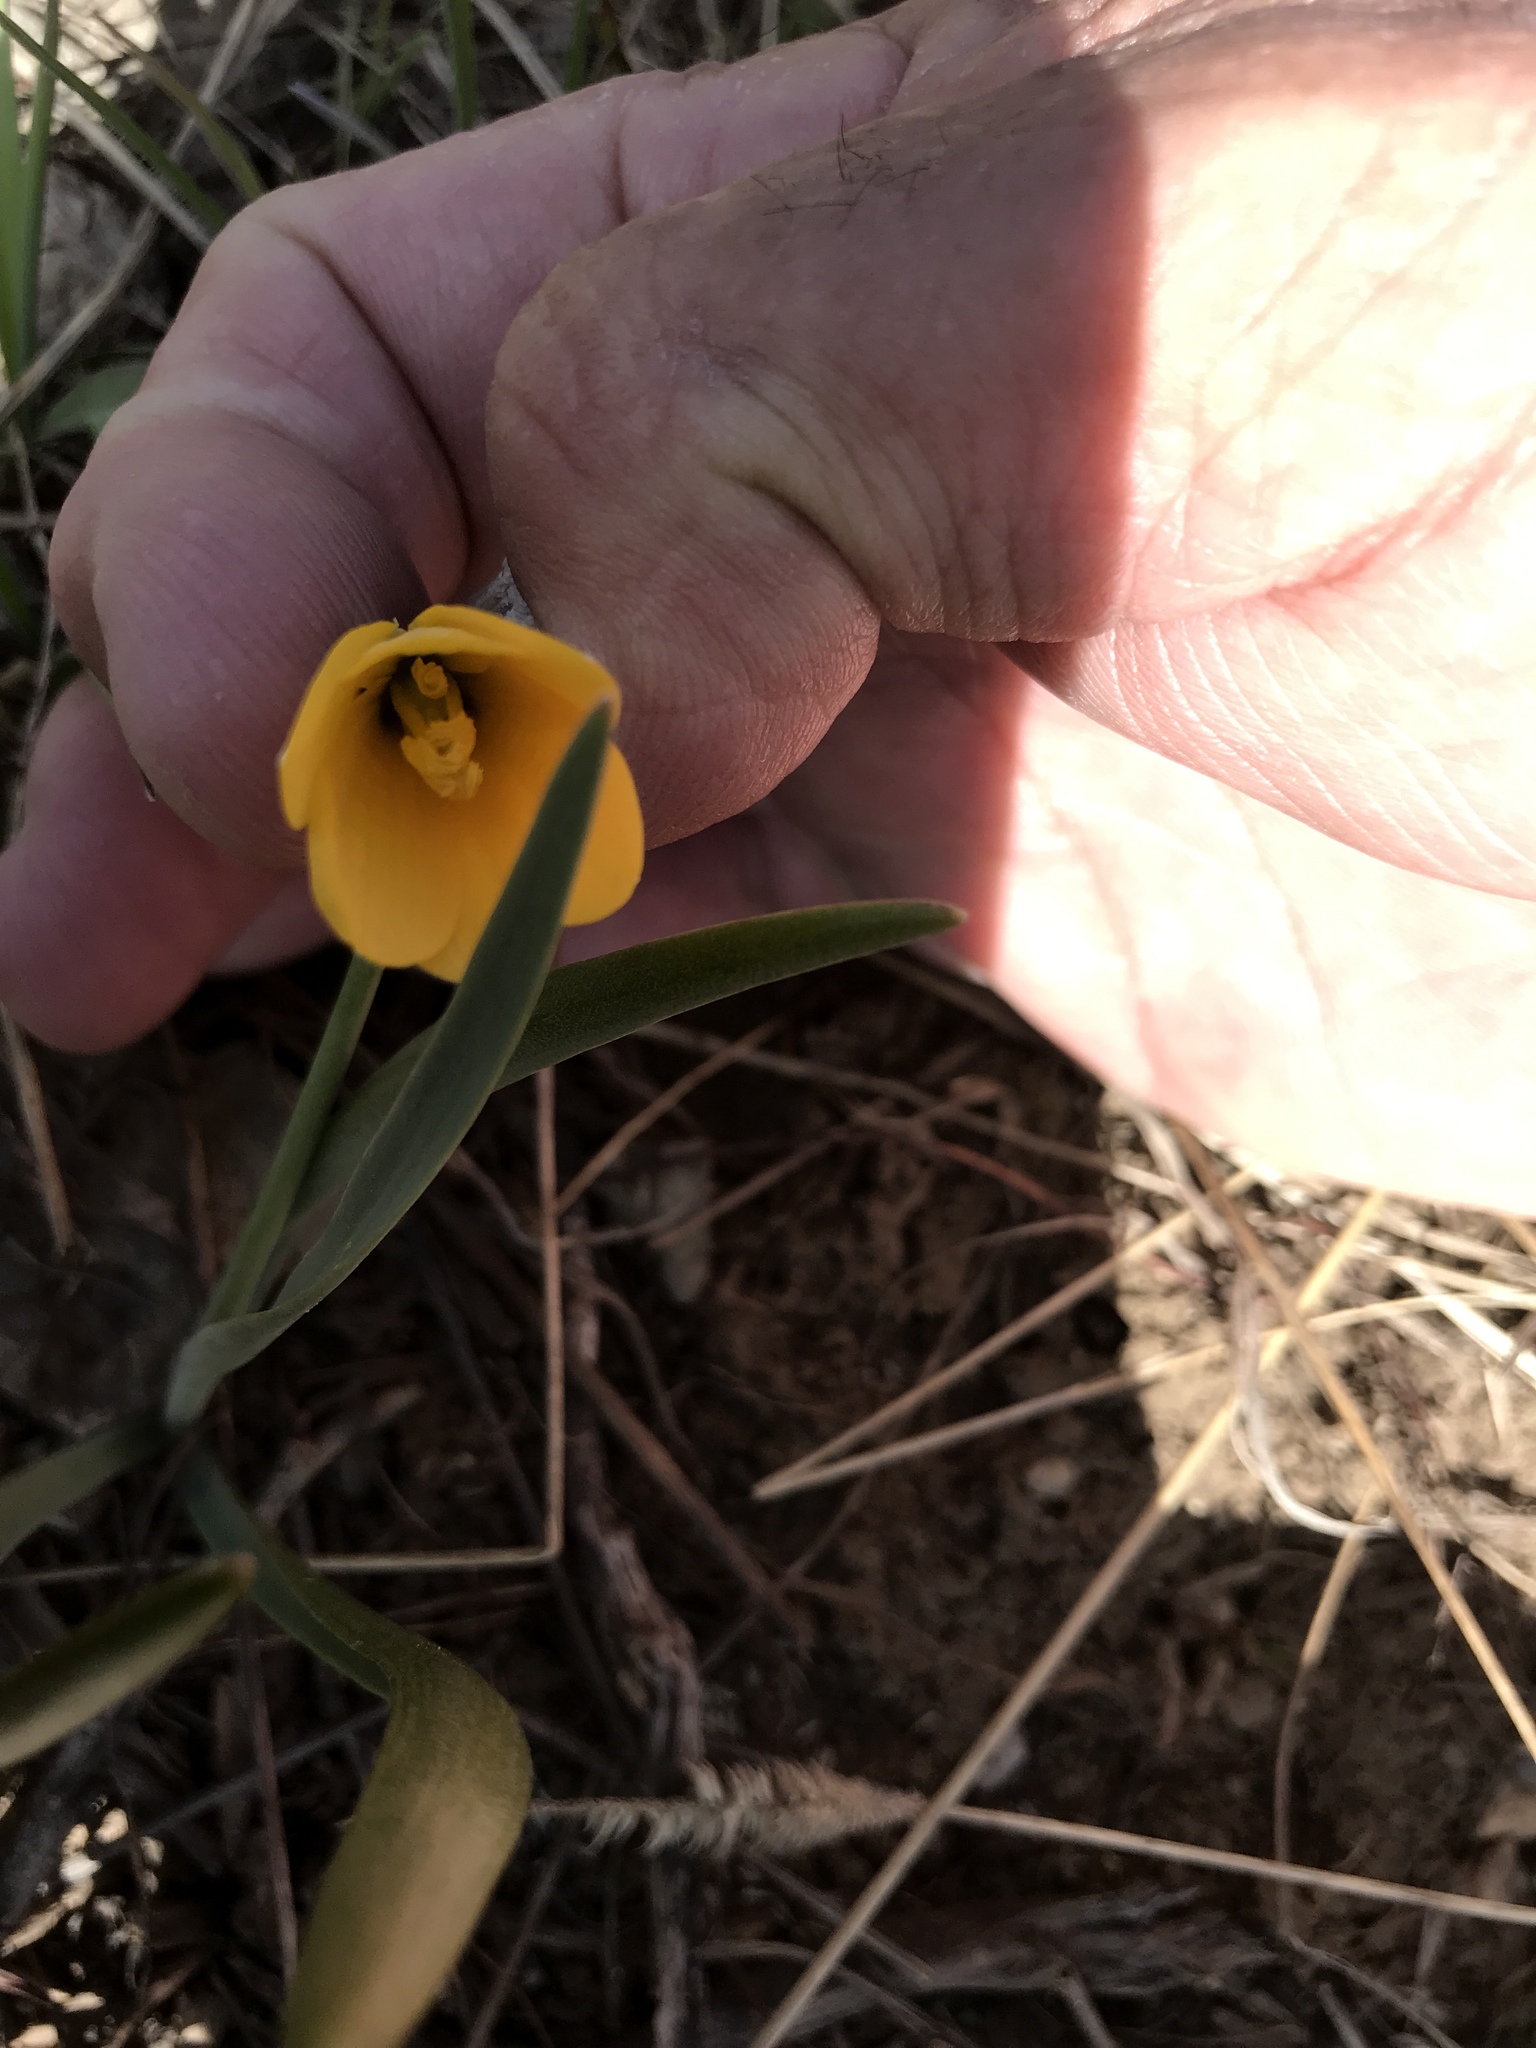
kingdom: Plantae
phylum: Tracheophyta
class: Liliopsida
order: Liliales
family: Liliaceae
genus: Fritillaria
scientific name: Fritillaria pudica
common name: Yellow fritillary
